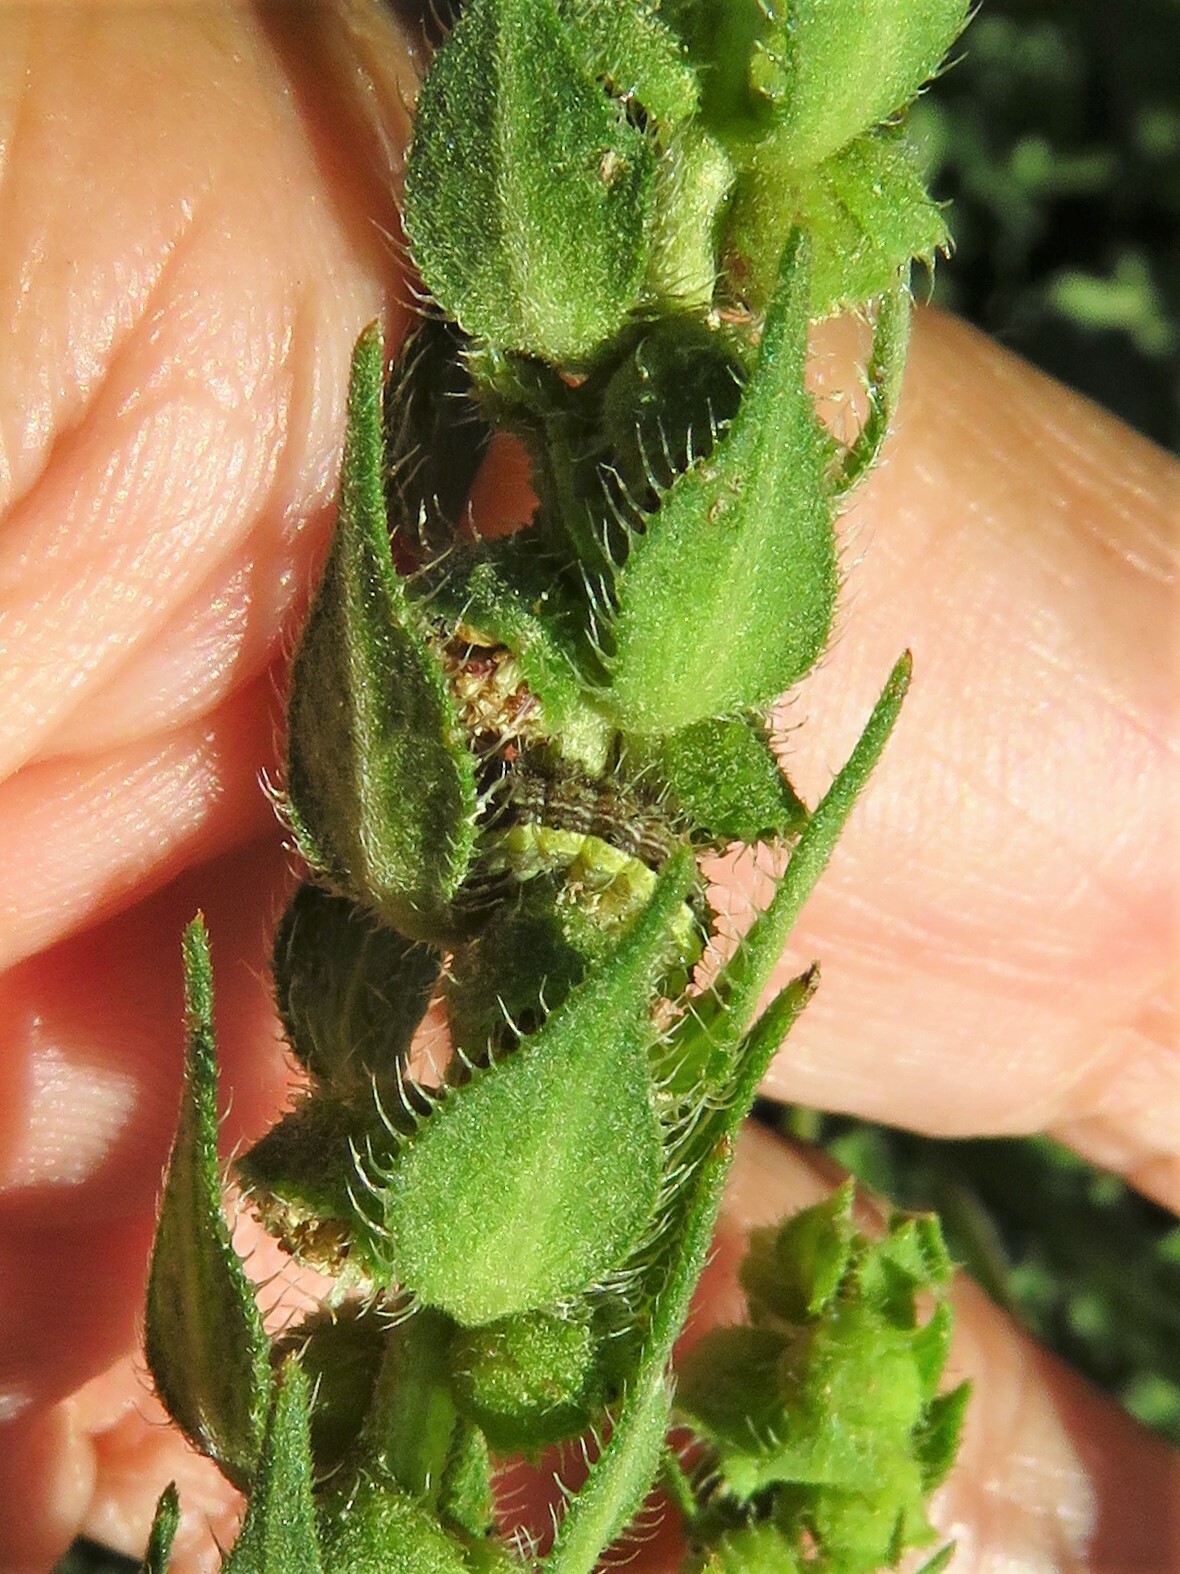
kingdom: Animalia
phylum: Arthropoda
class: Insecta
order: Lepidoptera
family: Noctuidae
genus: Schinia
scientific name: Schinia gracilenta
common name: Slender flower moth
